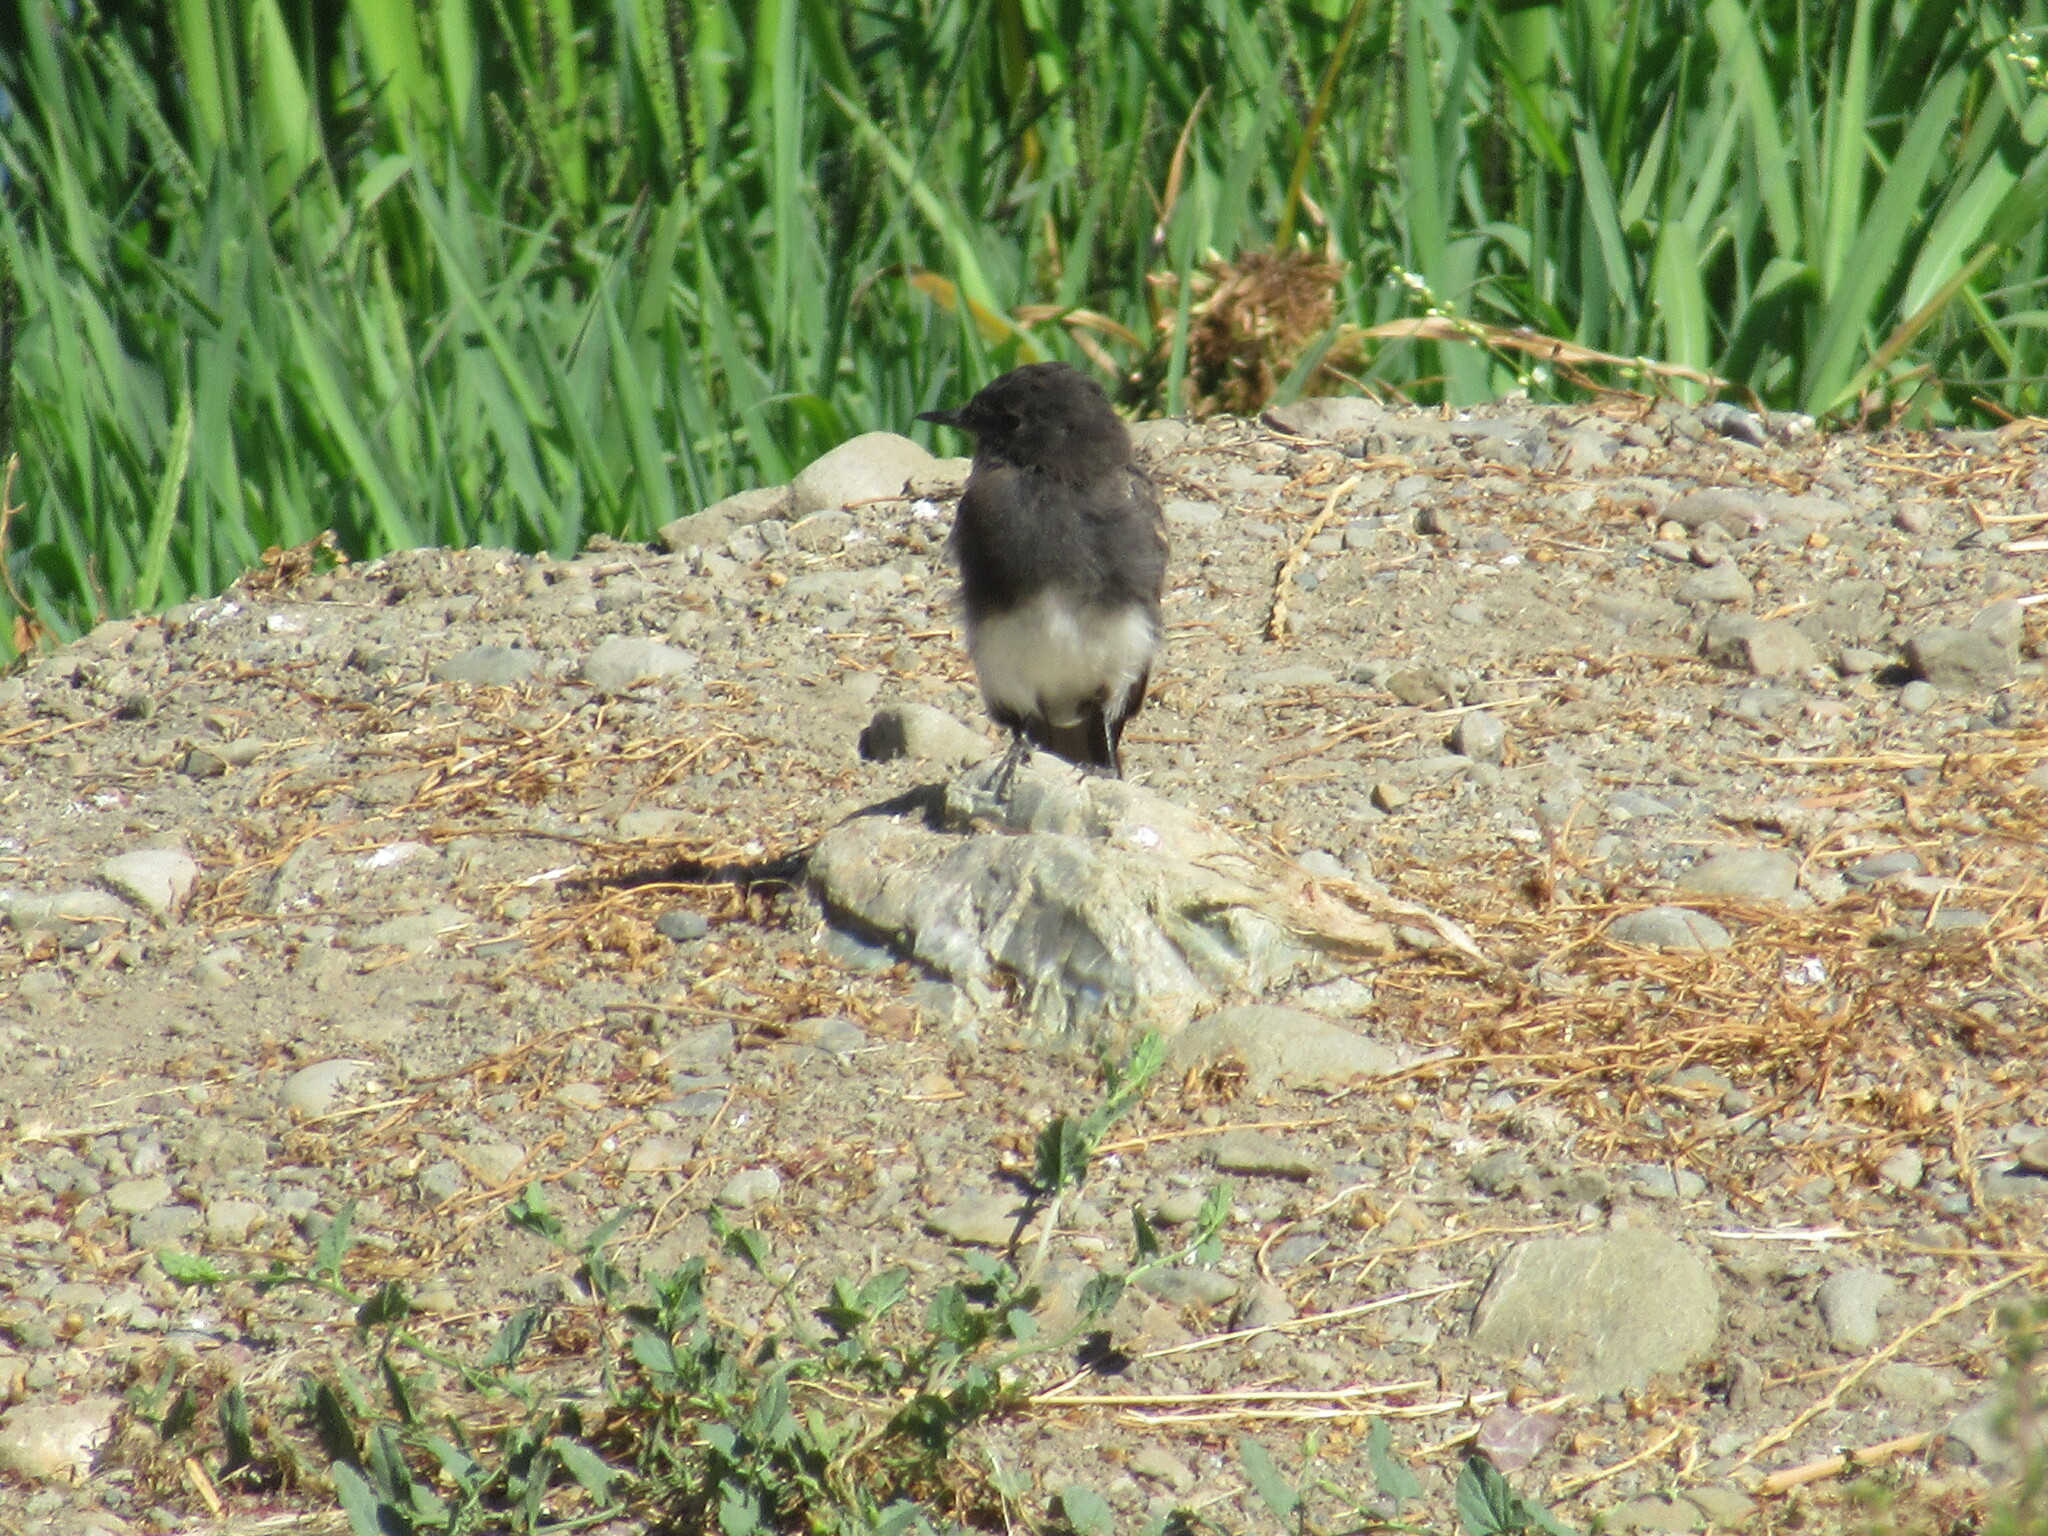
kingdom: Animalia
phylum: Chordata
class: Aves
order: Passeriformes
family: Tyrannidae
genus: Sayornis
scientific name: Sayornis nigricans
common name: Black phoebe
